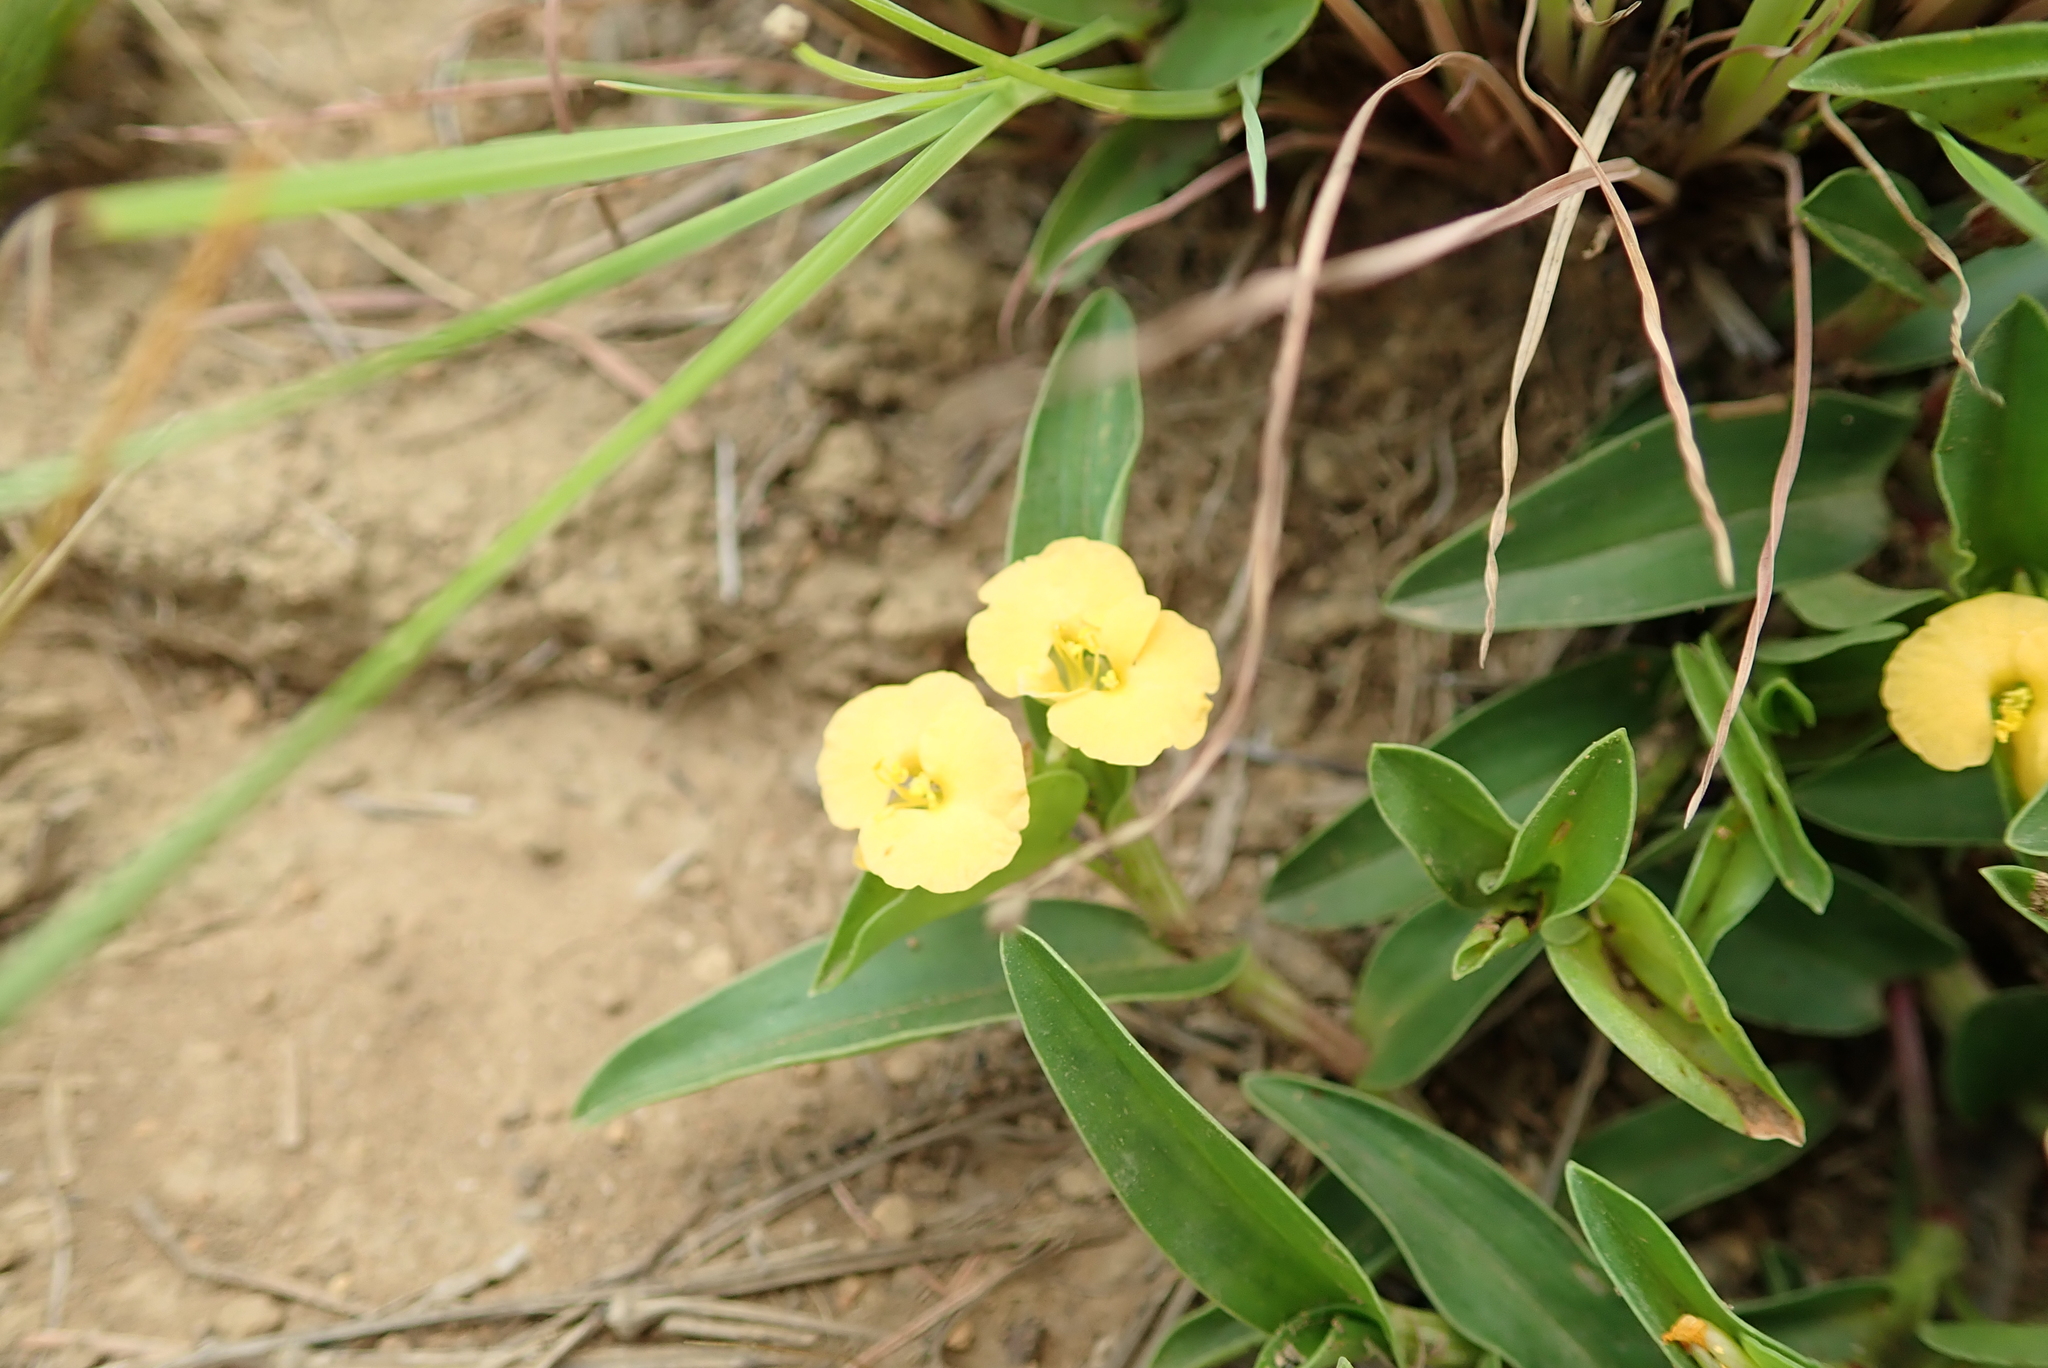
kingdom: Plantae
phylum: Tracheophyta
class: Liliopsida
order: Commelinales
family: Commelinaceae
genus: Commelina
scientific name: Commelina africana
